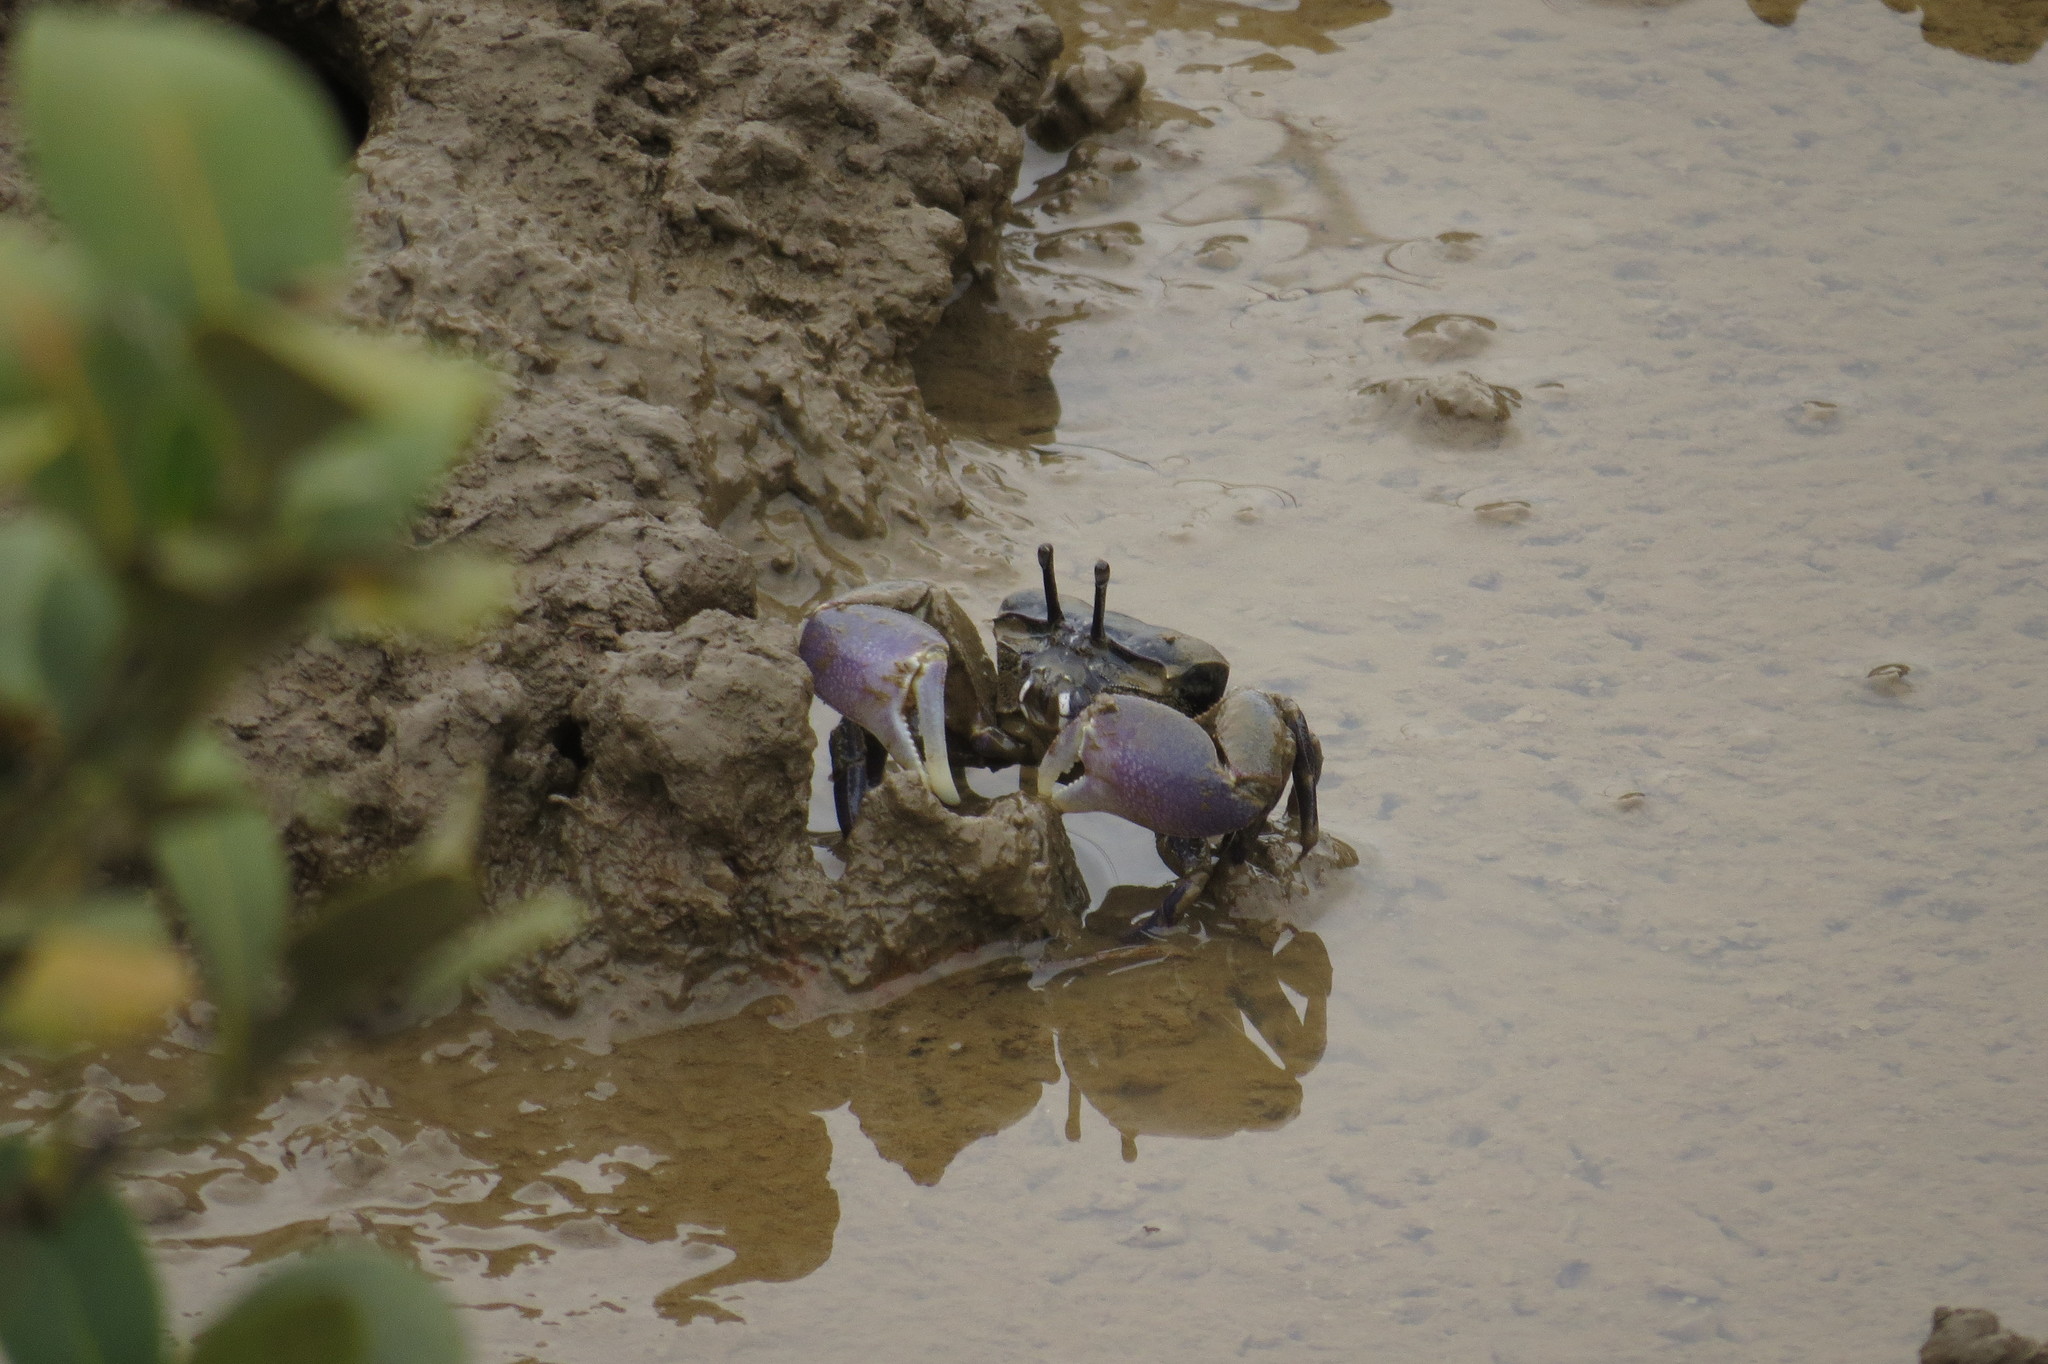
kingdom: Animalia
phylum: Arthropoda
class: Malacostraca
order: Decapoda
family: Heloeciidae
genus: Heloecius
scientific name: Heloecius cordiformis
